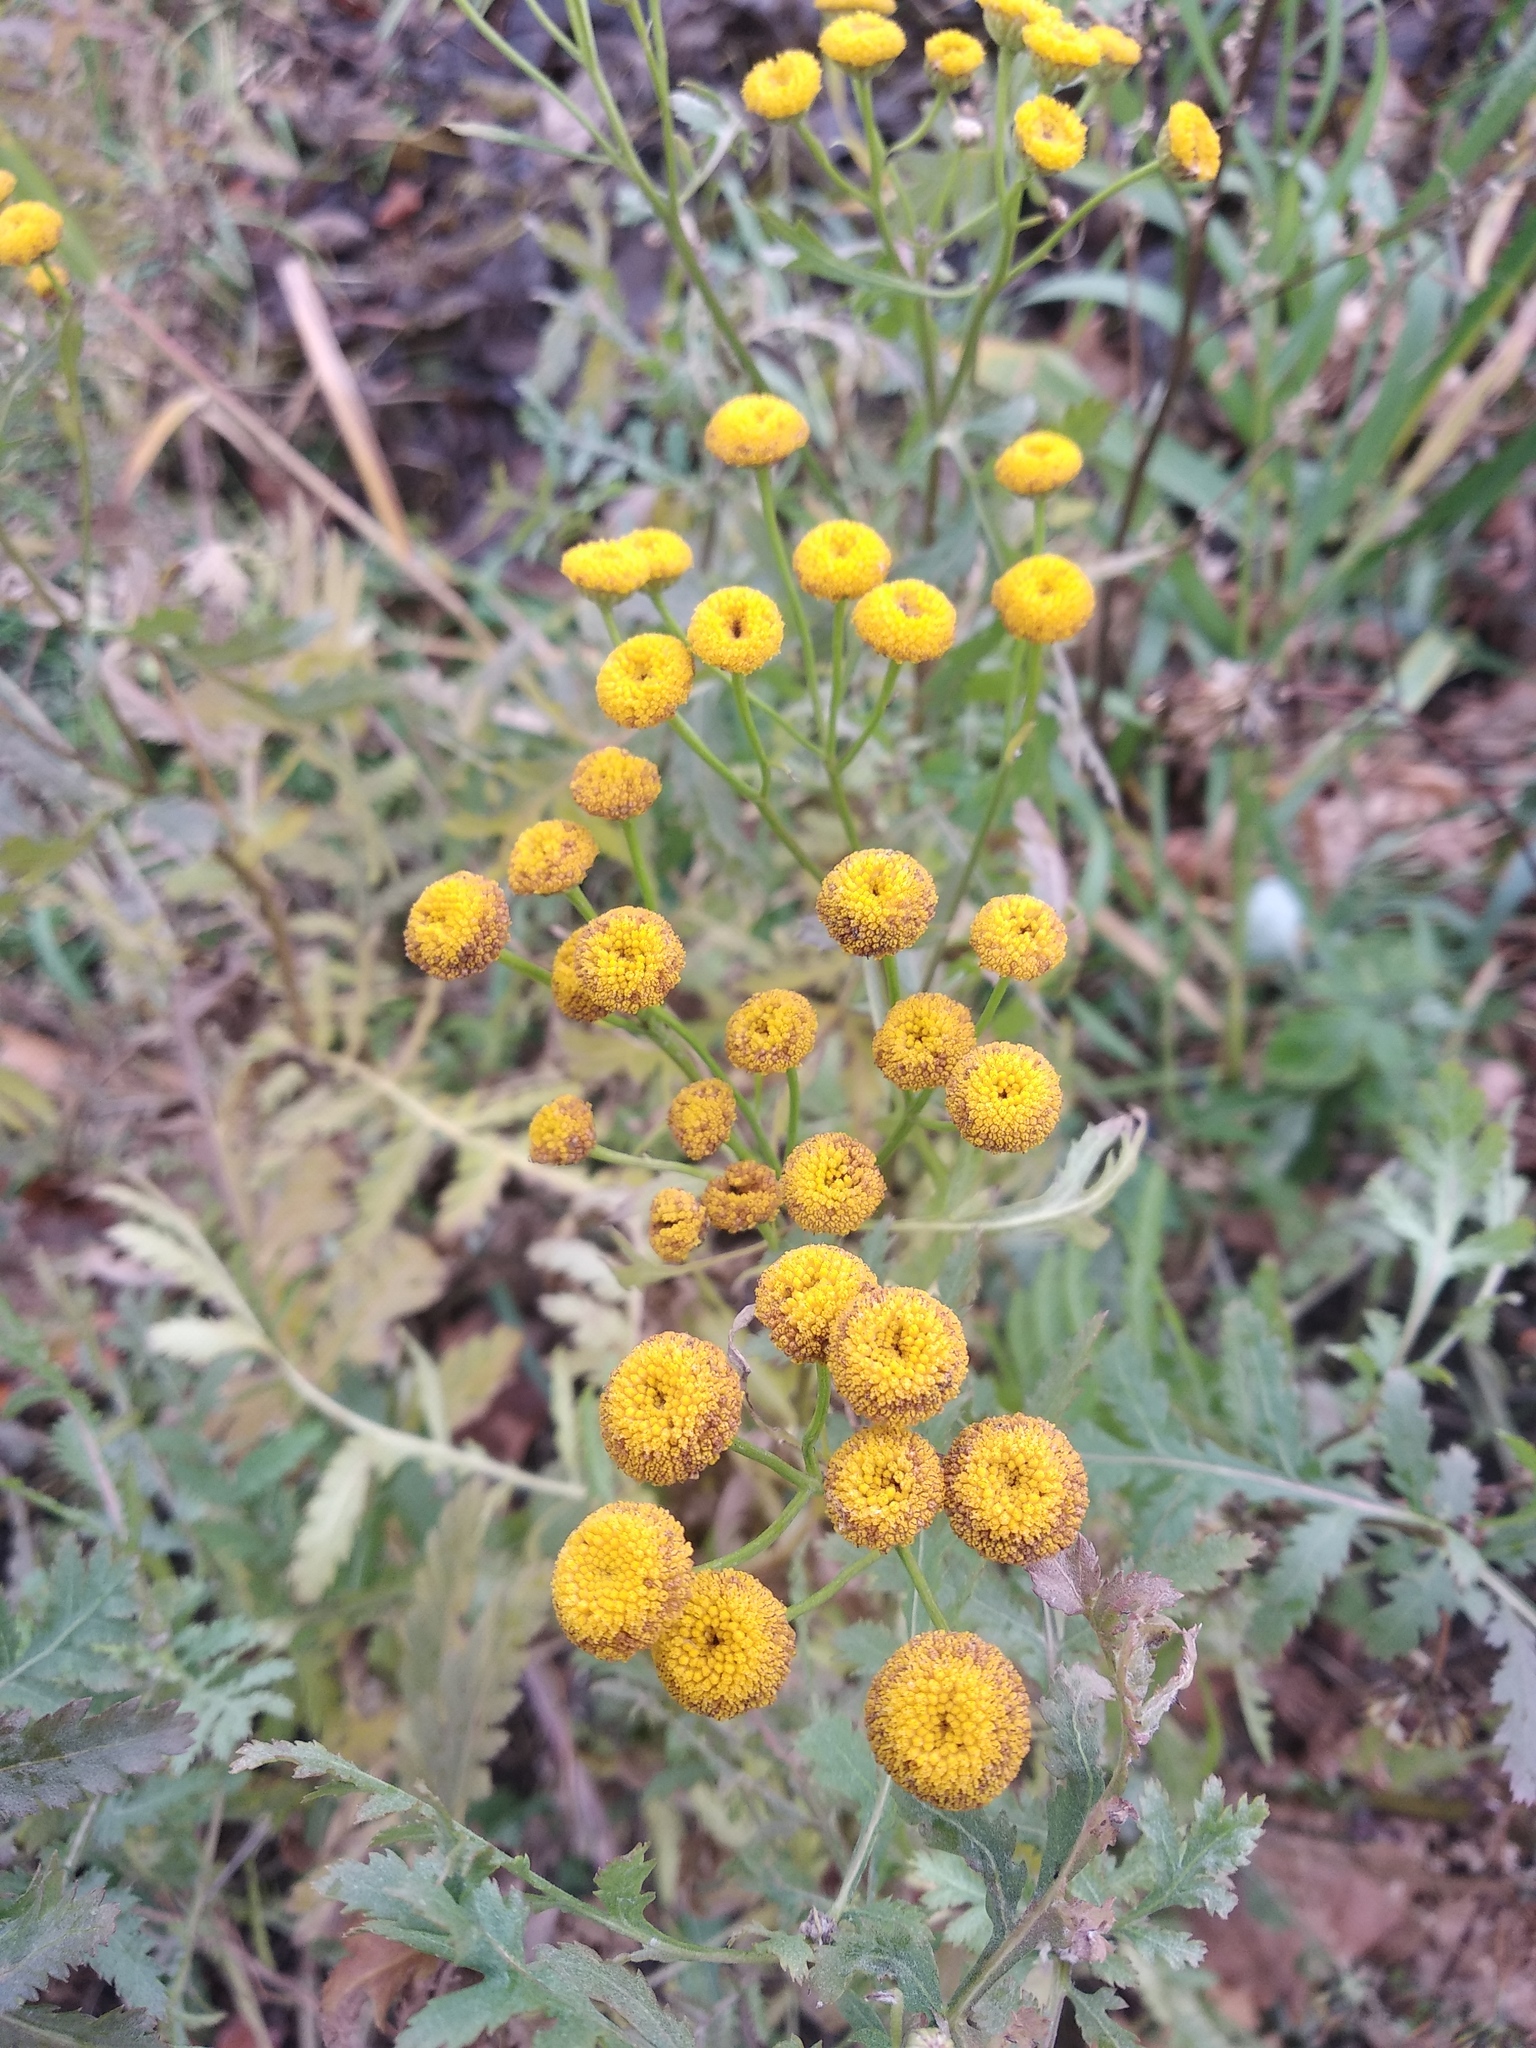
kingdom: Plantae
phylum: Tracheophyta
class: Magnoliopsida
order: Asterales
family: Asteraceae
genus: Tanacetum
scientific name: Tanacetum vulgare
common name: Common tansy
